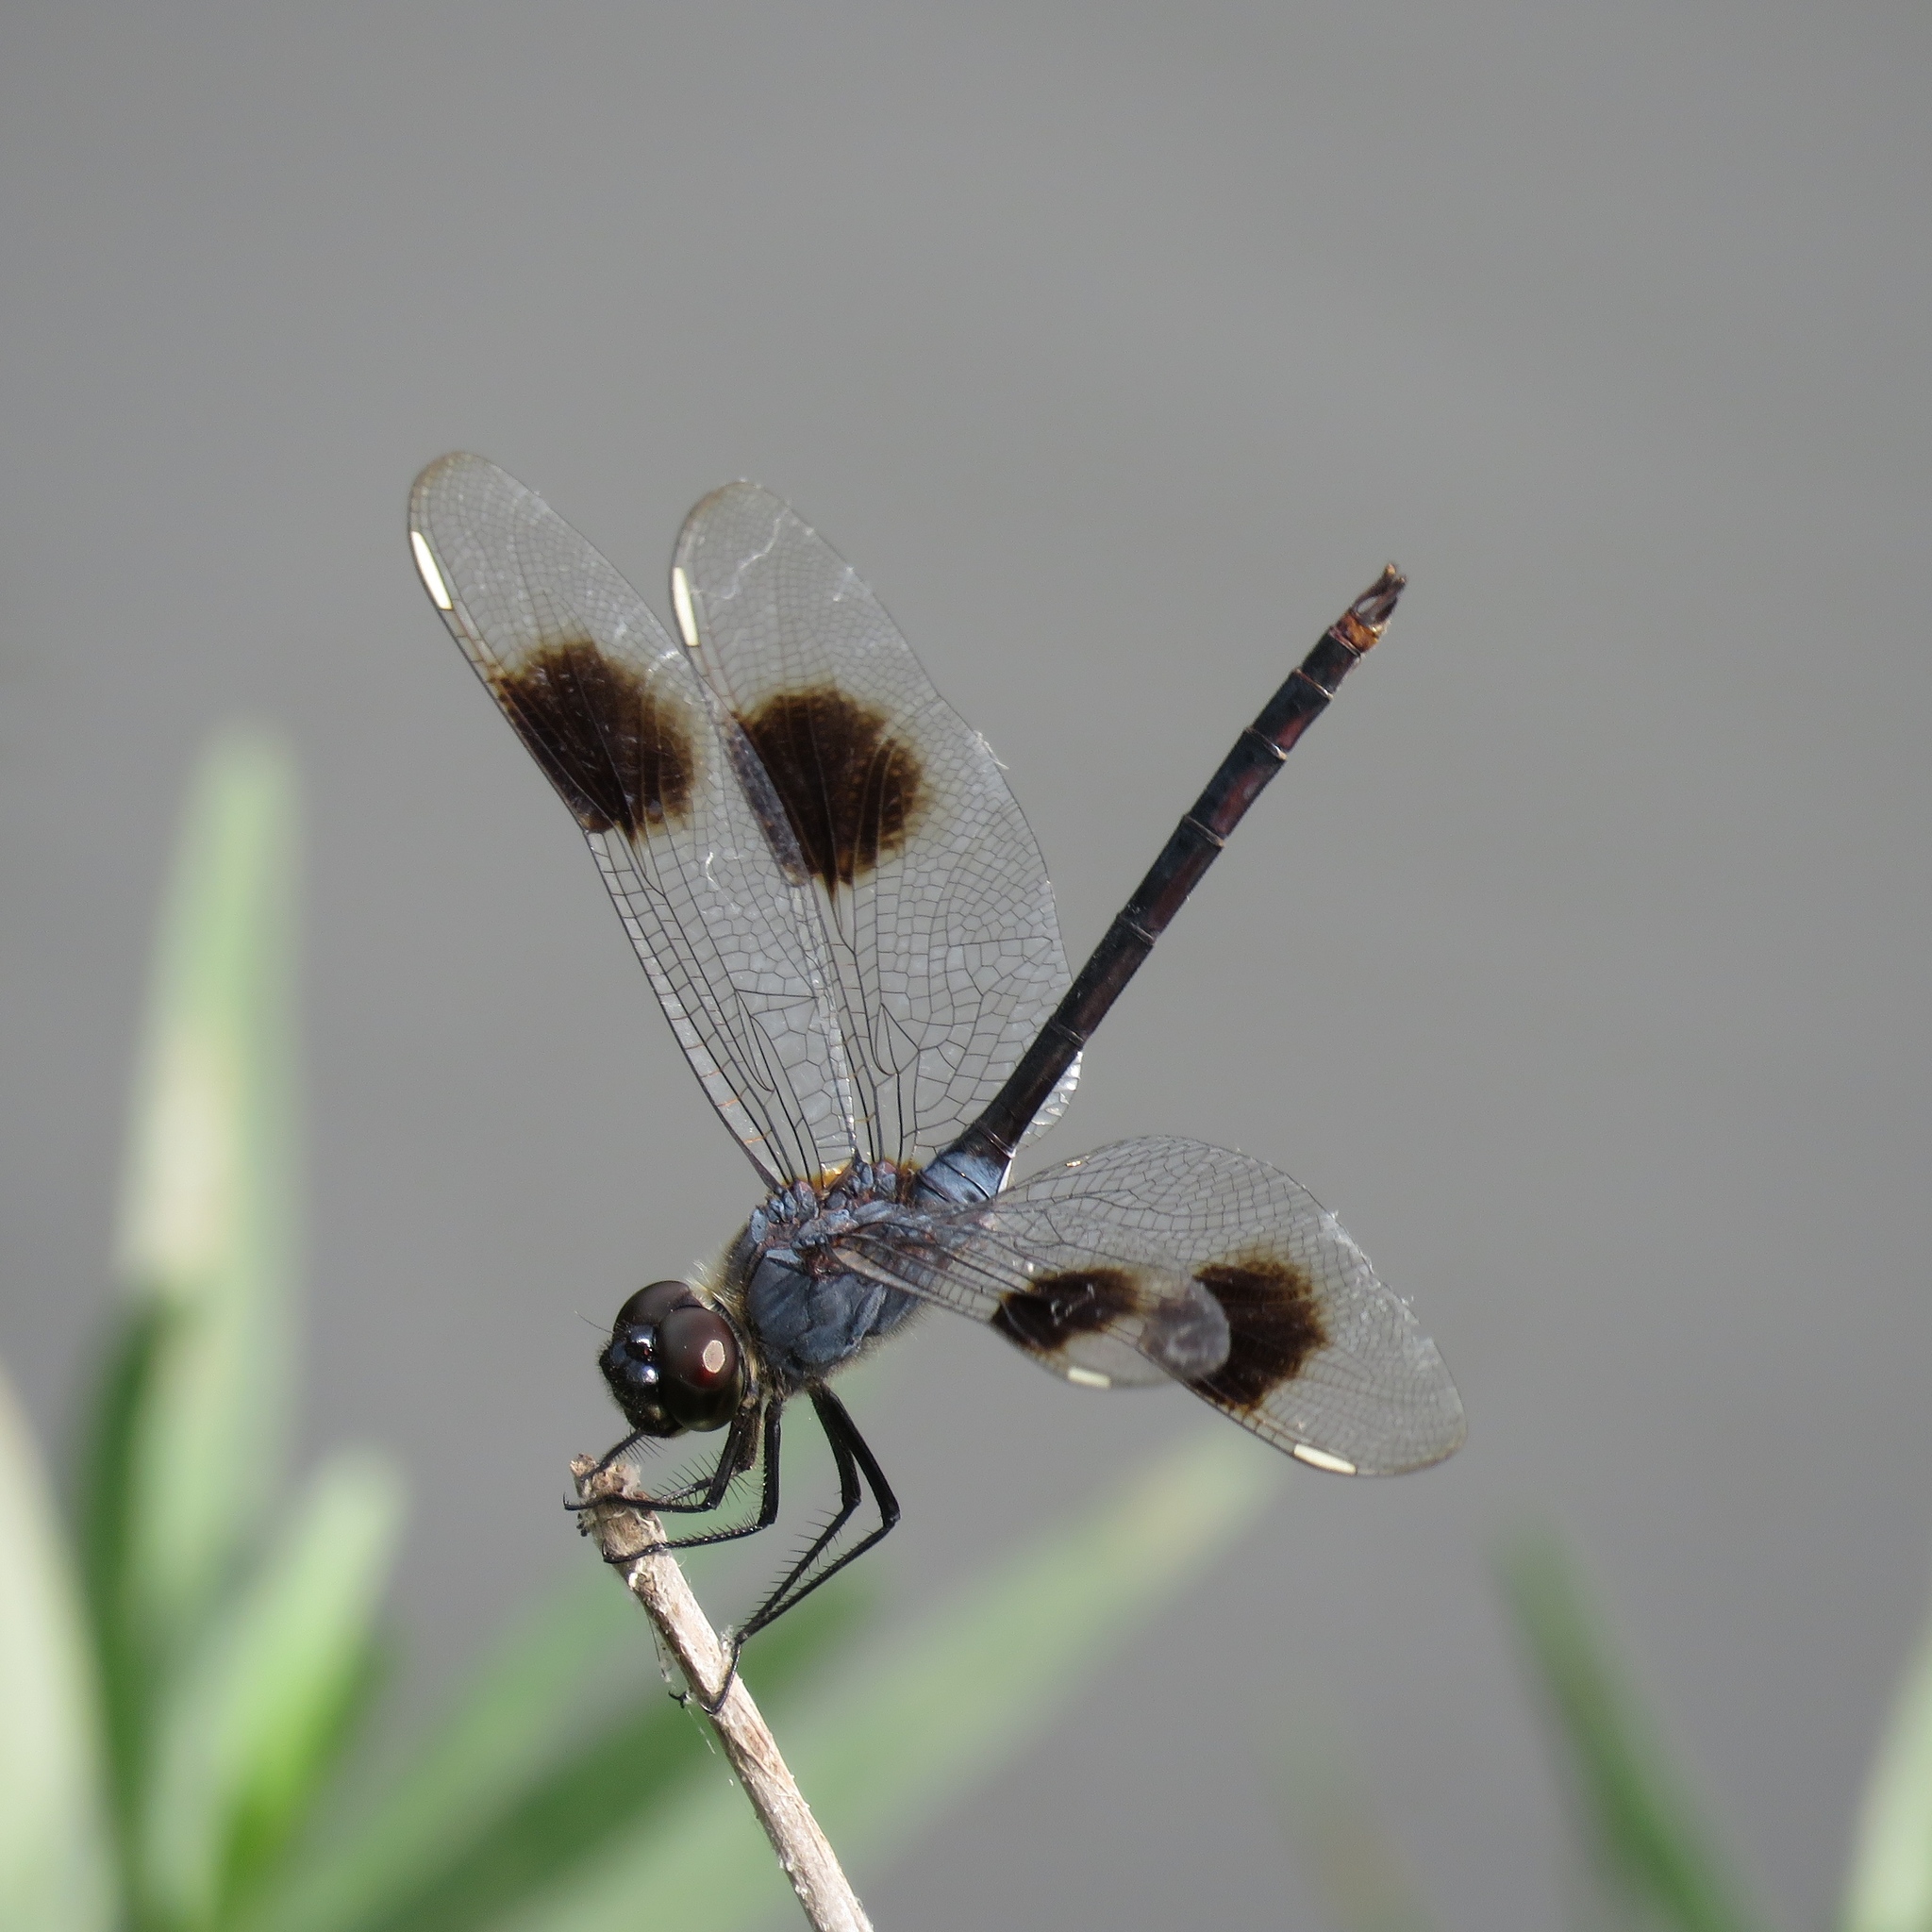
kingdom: Animalia
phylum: Arthropoda
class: Insecta
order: Odonata
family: Libellulidae
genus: Brachymesia
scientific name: Brachymesia gravida
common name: Four-spotted pennant
